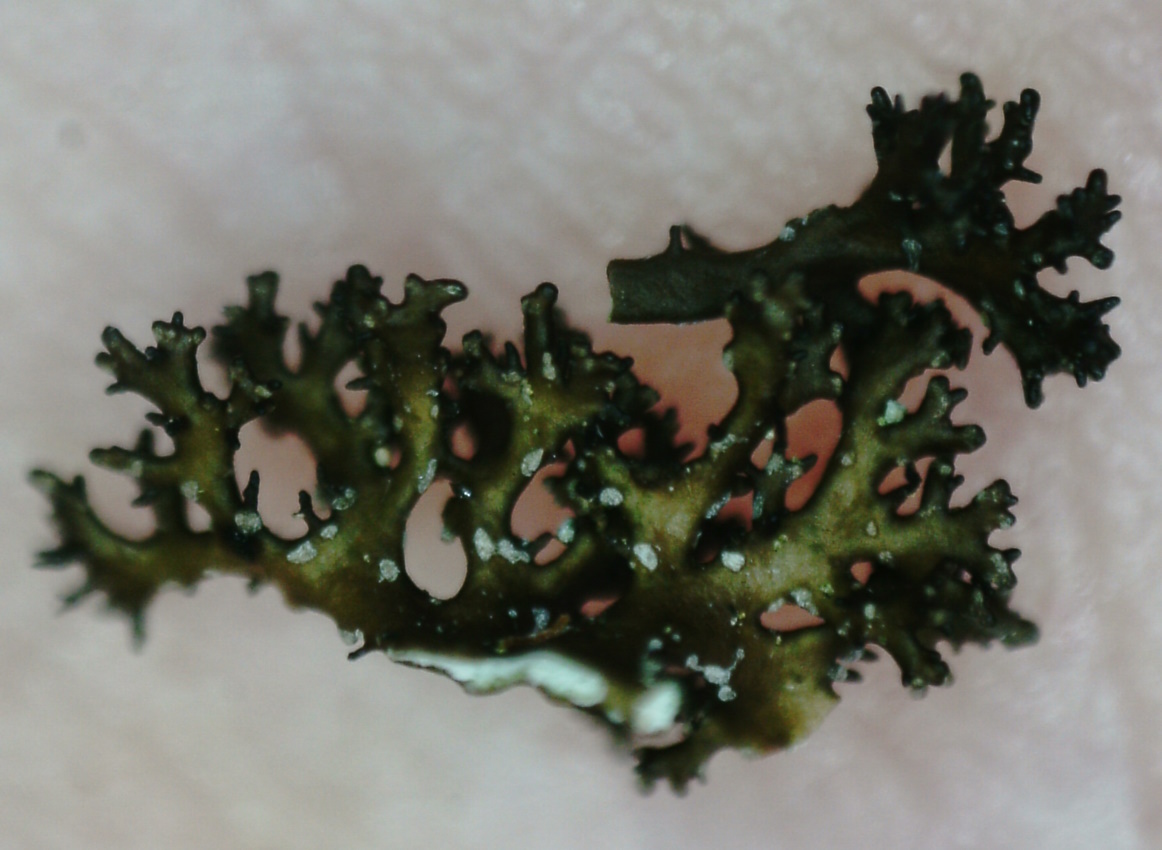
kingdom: Fungi
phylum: Ascomycota
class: Lecanoromycetes
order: Lecanorales
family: Parmeliaceae
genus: Cetraria
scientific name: Cetraria odontella
